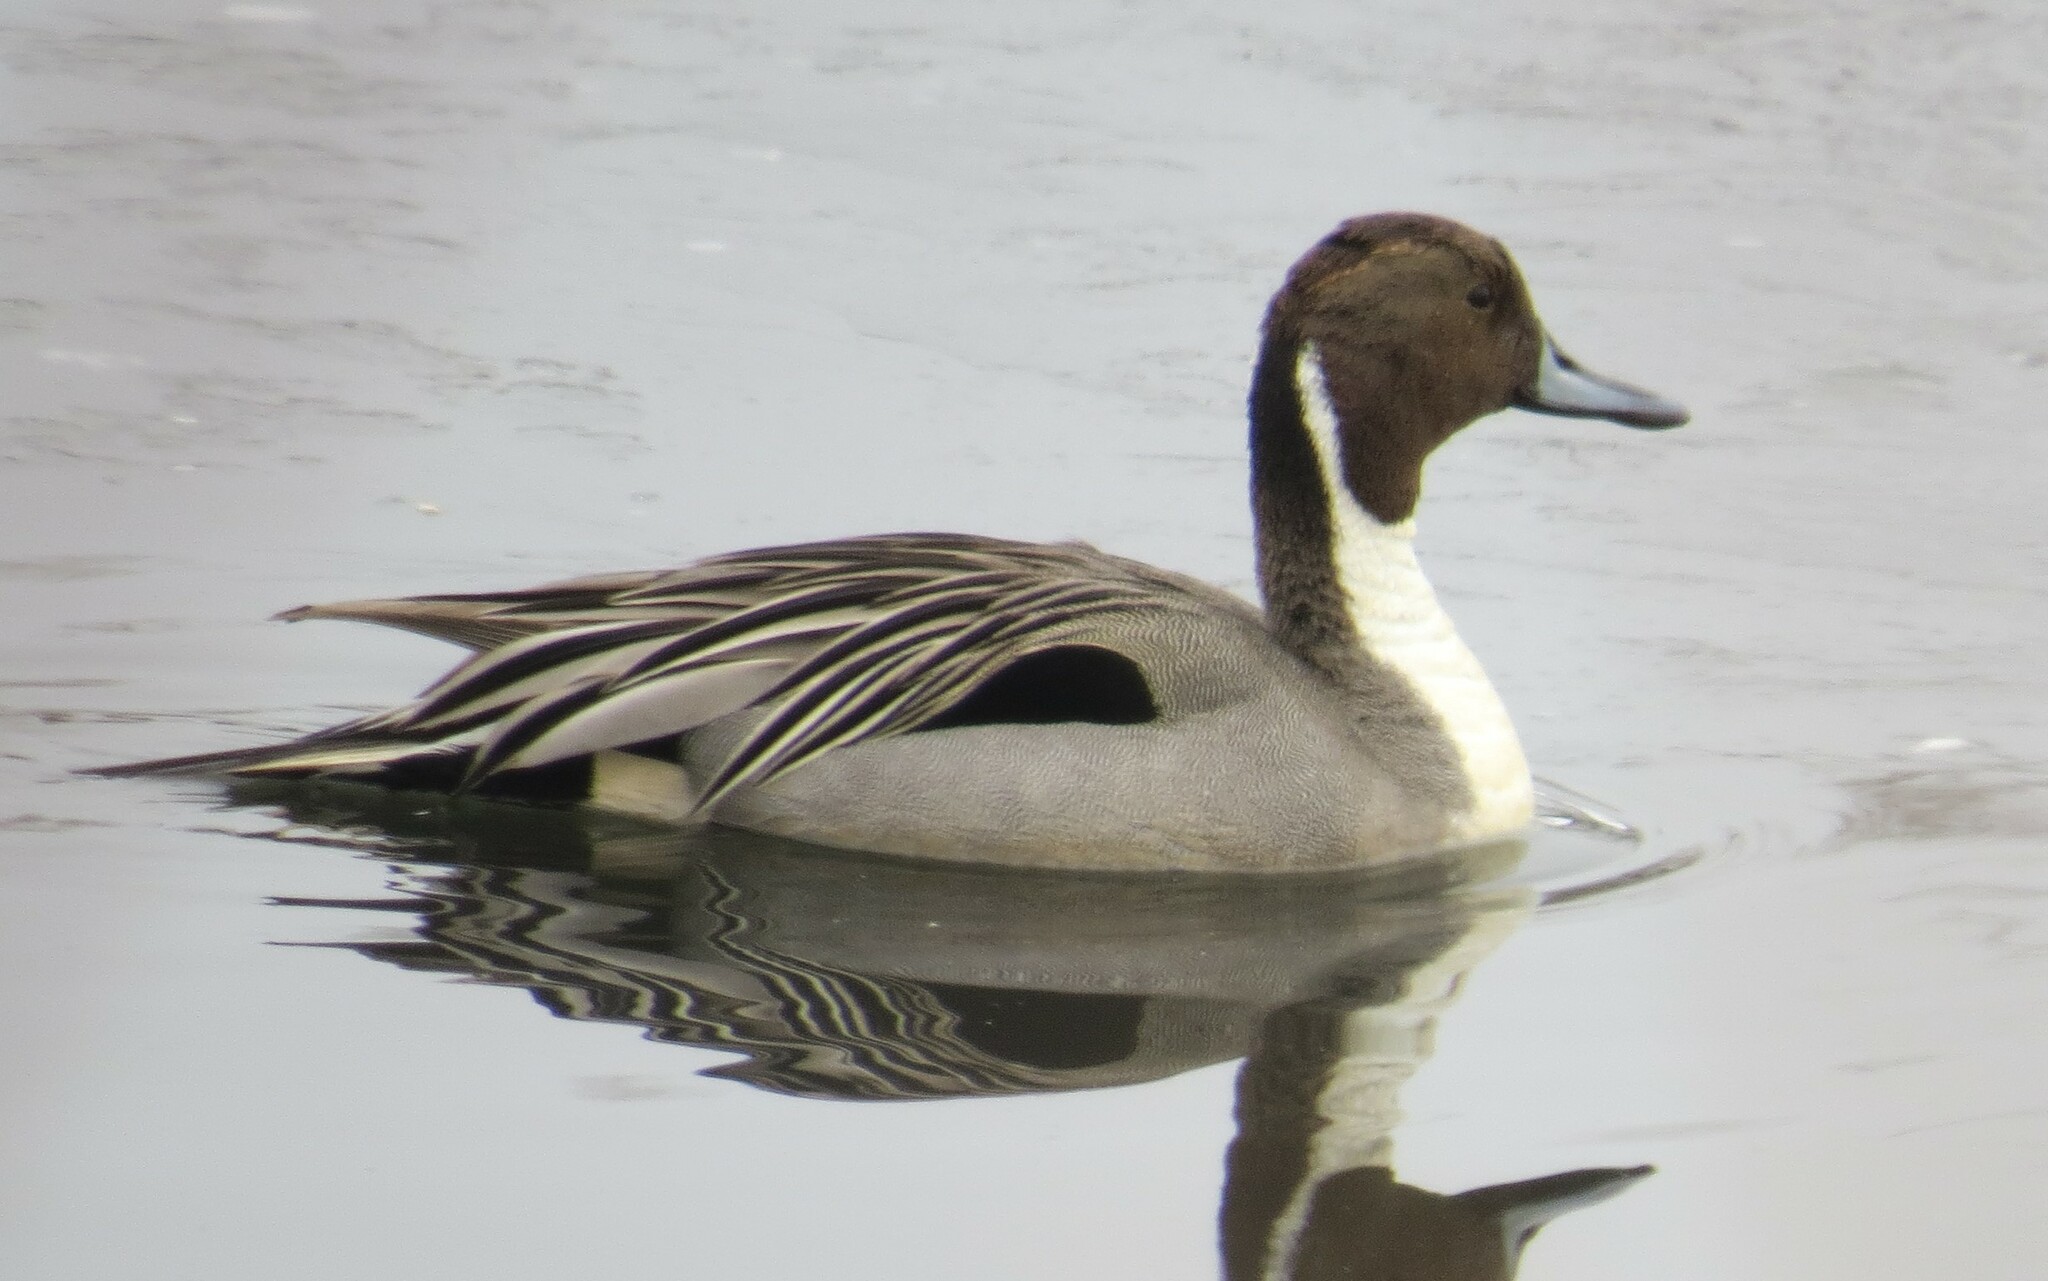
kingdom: Animalia
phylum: Chordata
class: Aves
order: Anseriformes
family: Anatidae
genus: Anas
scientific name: Anas acuta
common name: Northern pintail
